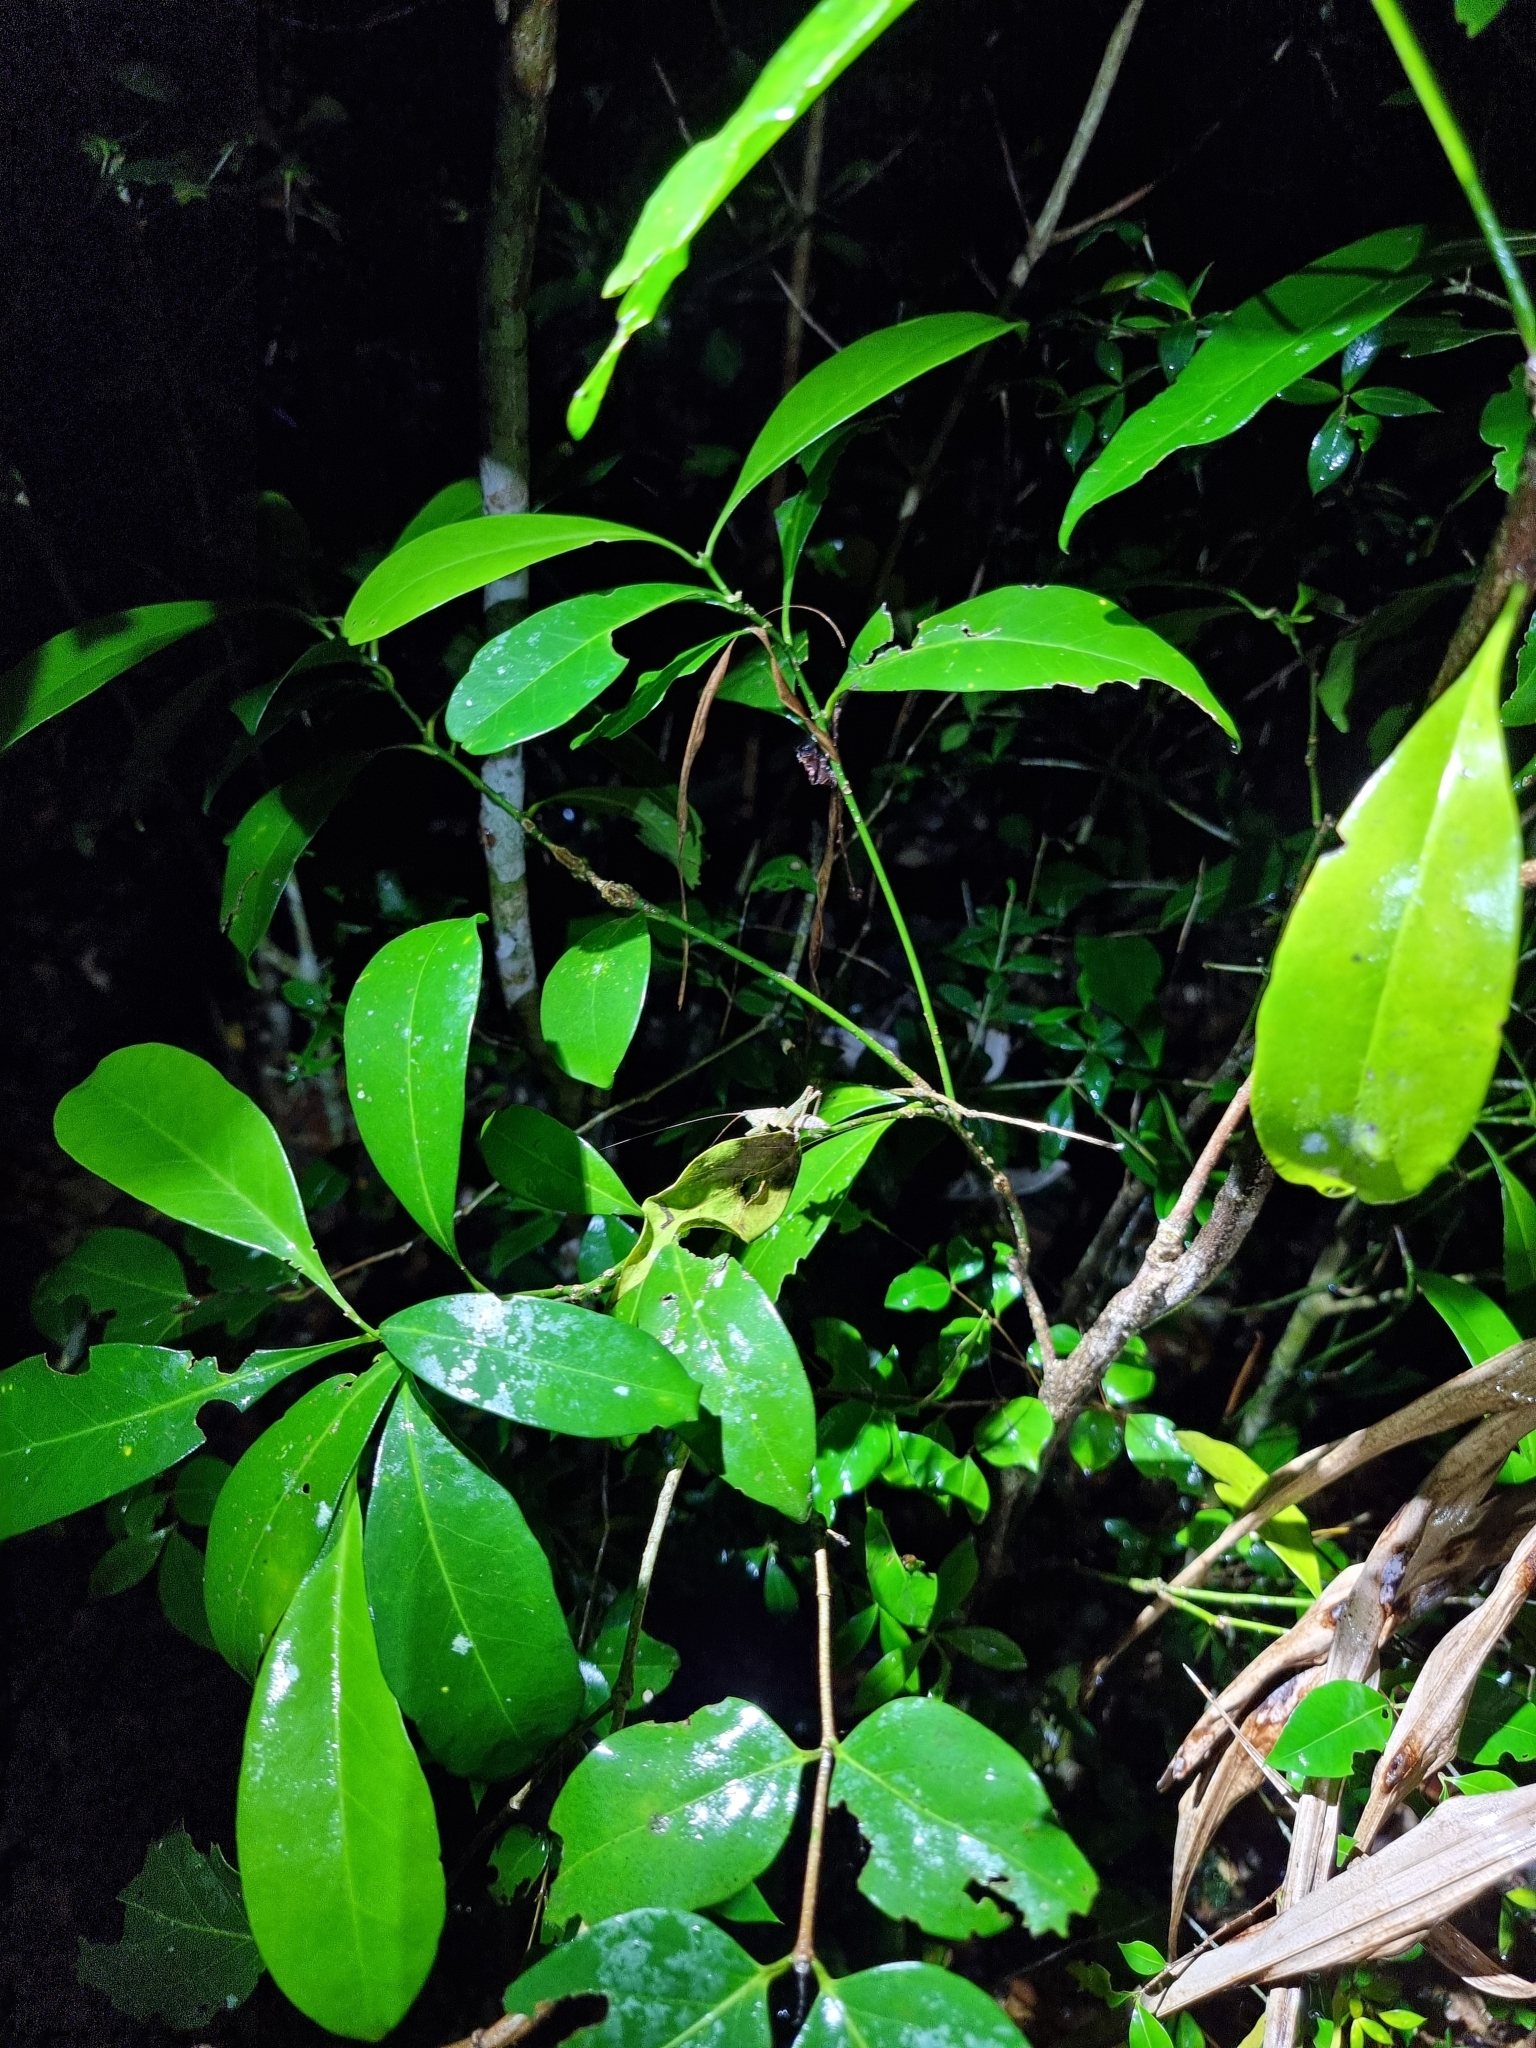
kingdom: Animalia
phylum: Arthropoda
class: Insecta
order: Orthoptera
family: Tettigoniidae
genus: Austrosalomona
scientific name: Austrosalomona falcata
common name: Olive-green coastal katydid
